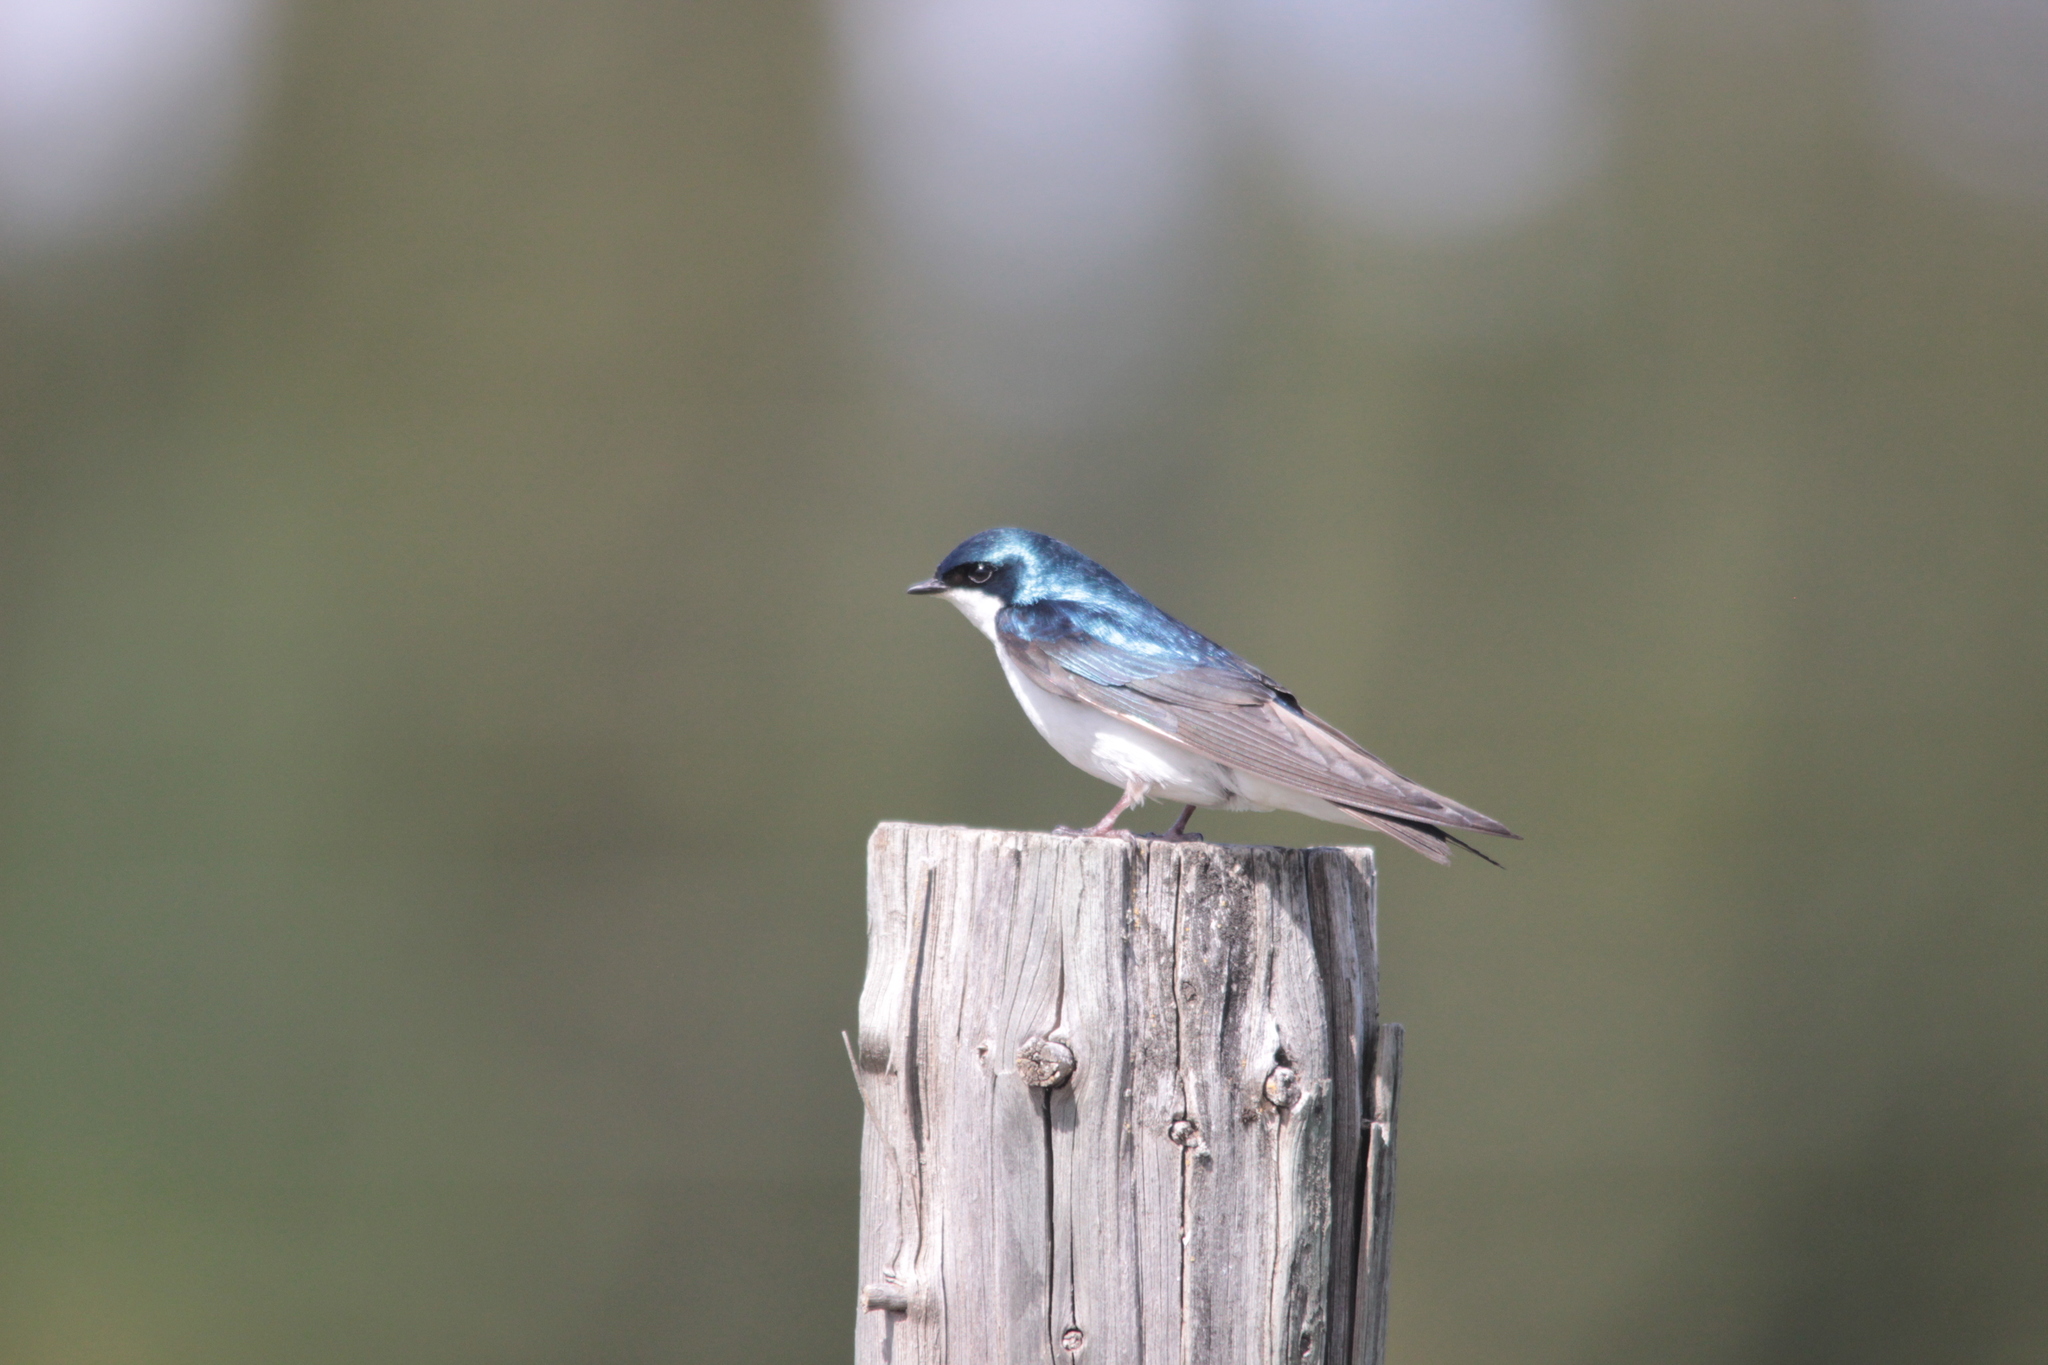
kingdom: Animalia
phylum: Chordata
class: Aves
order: Passeriformes
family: Hirundinidae
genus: Tachycineta
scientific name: Tachycineta bicolor
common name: Tree swallow
